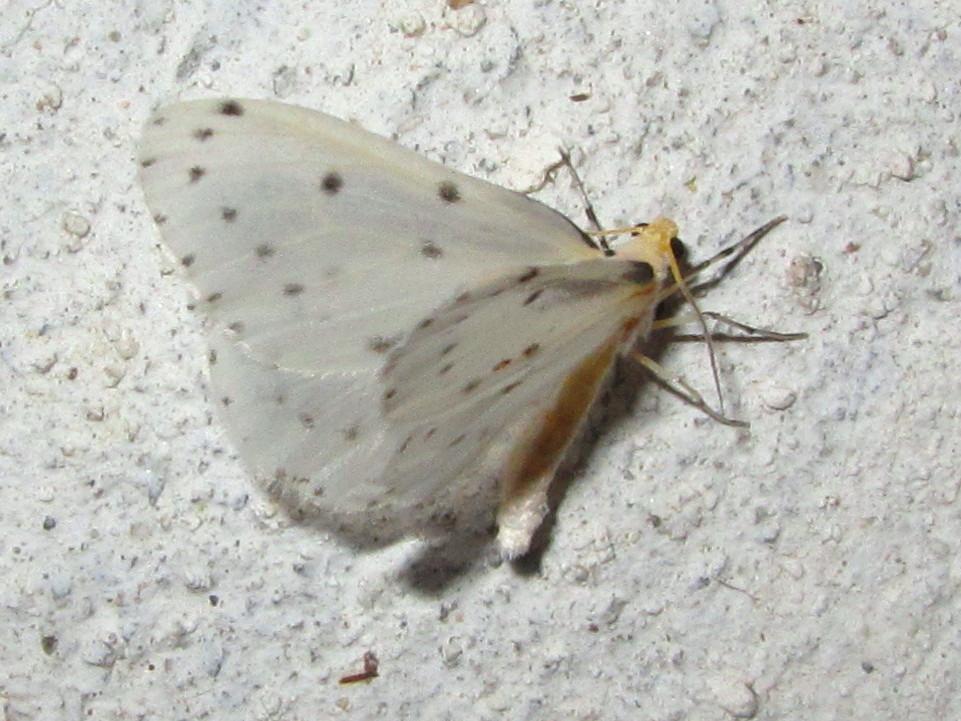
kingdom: Animalia
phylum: Arthropoda
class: Insecta
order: Lepidoptera
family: Geometridae
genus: Naxa
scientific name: Naxa obliterata
